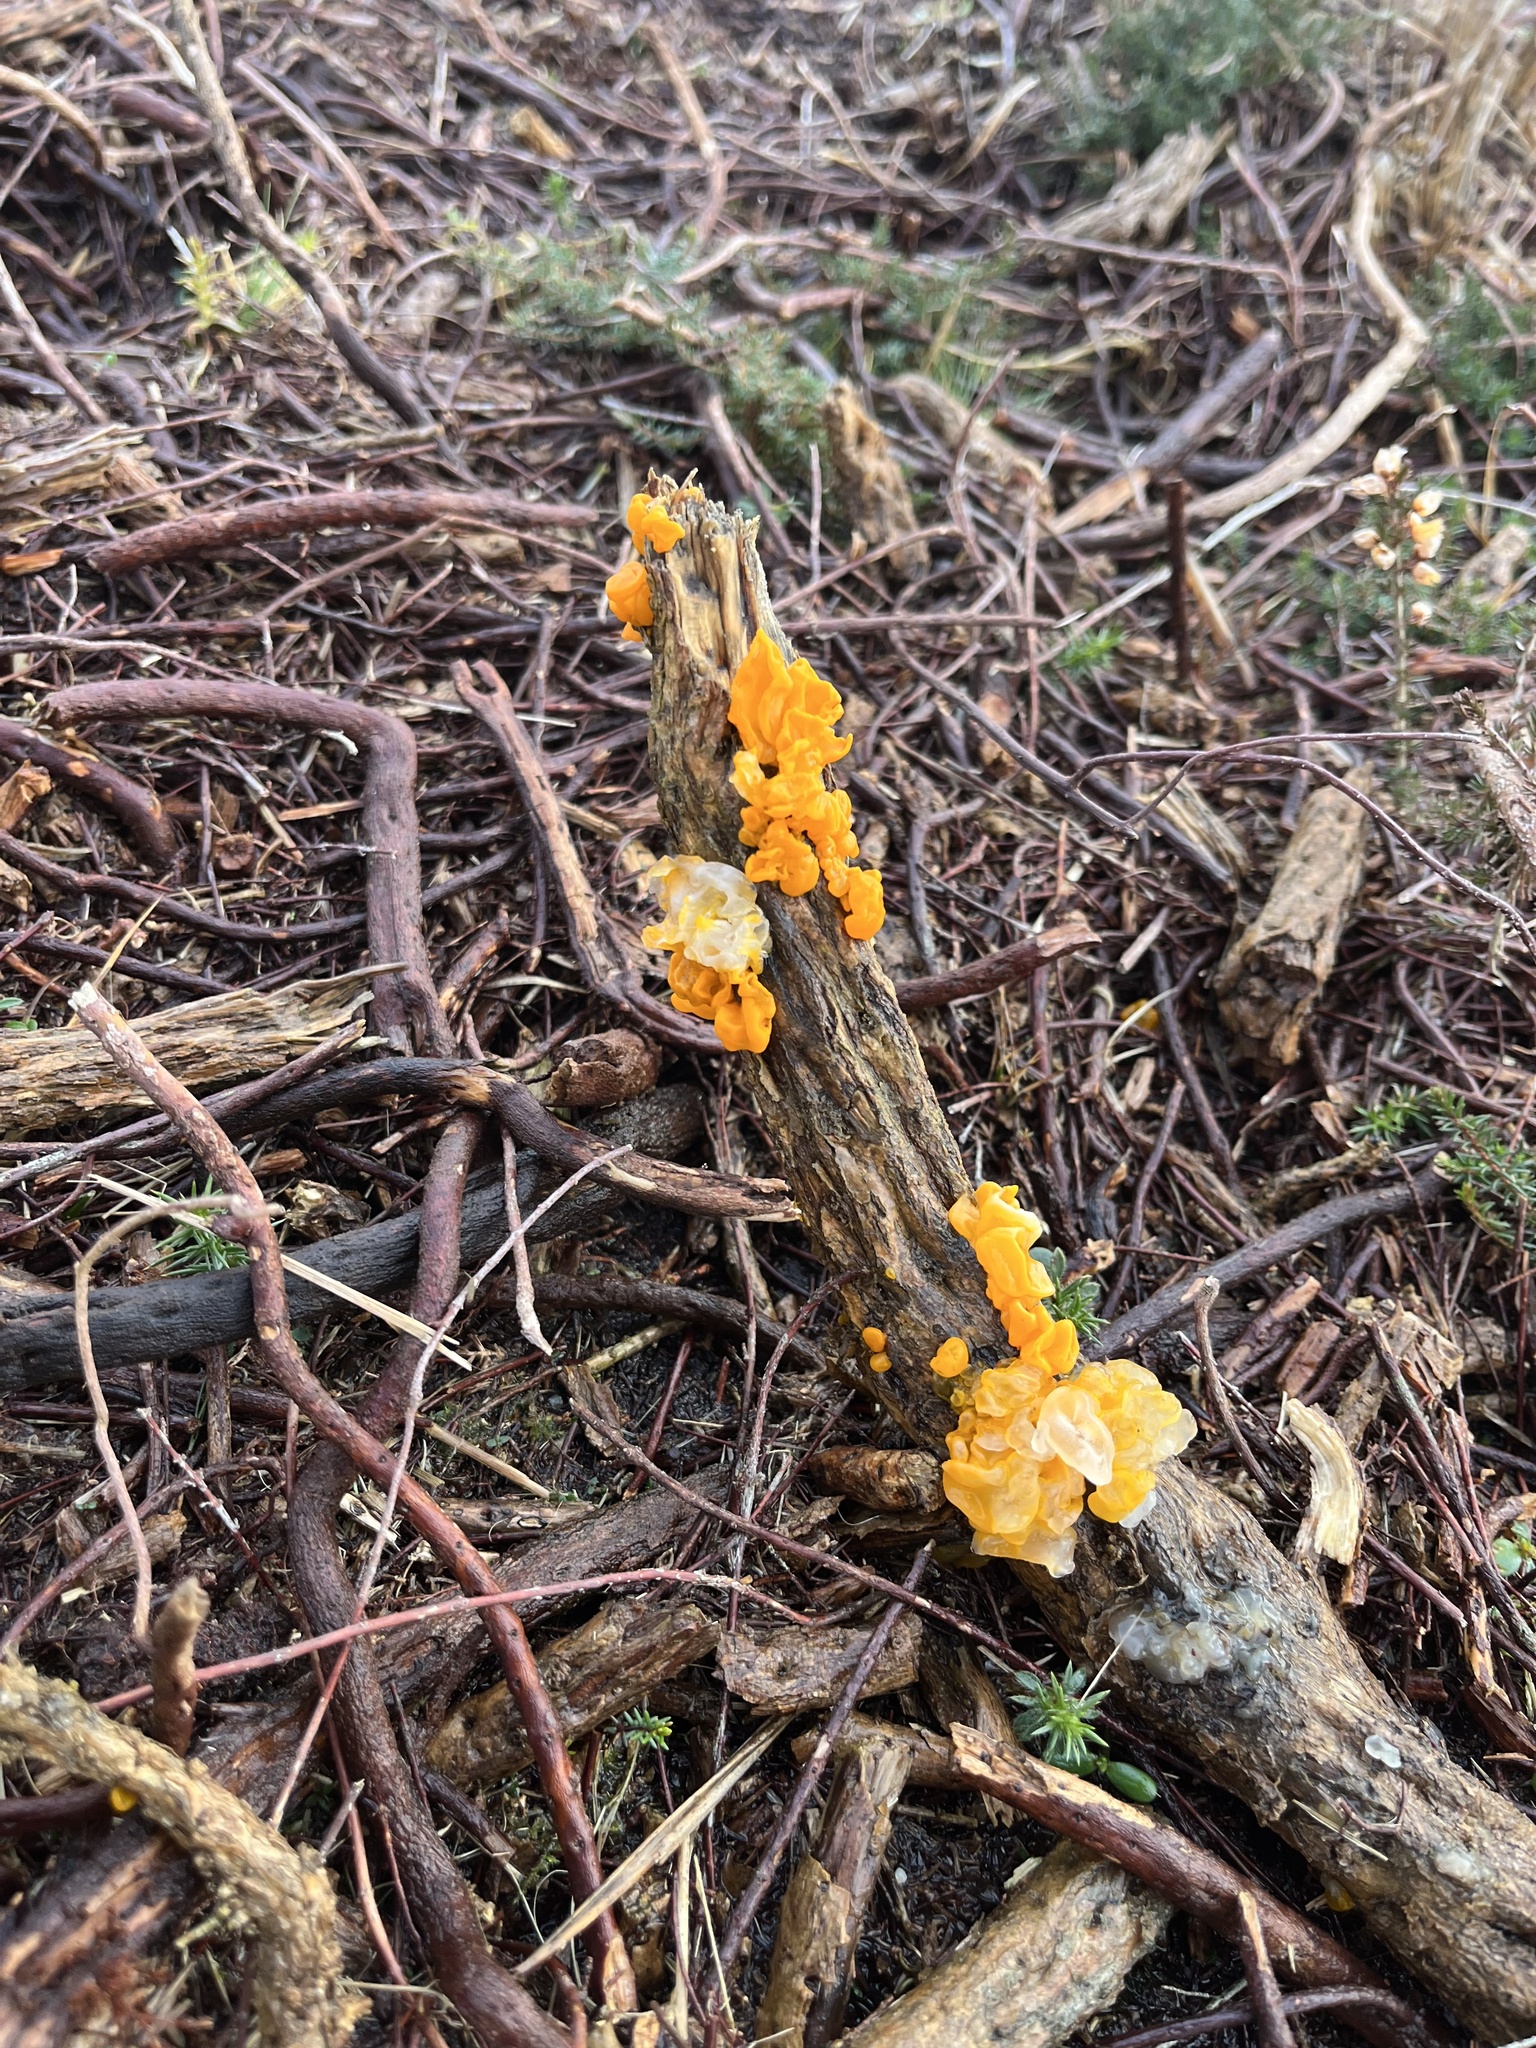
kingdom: Fungi
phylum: Basidiomycota
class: Tremellomycetes
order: Tremellales
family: Tremellaceae
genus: Tremella
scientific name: Tremella mesenterica
